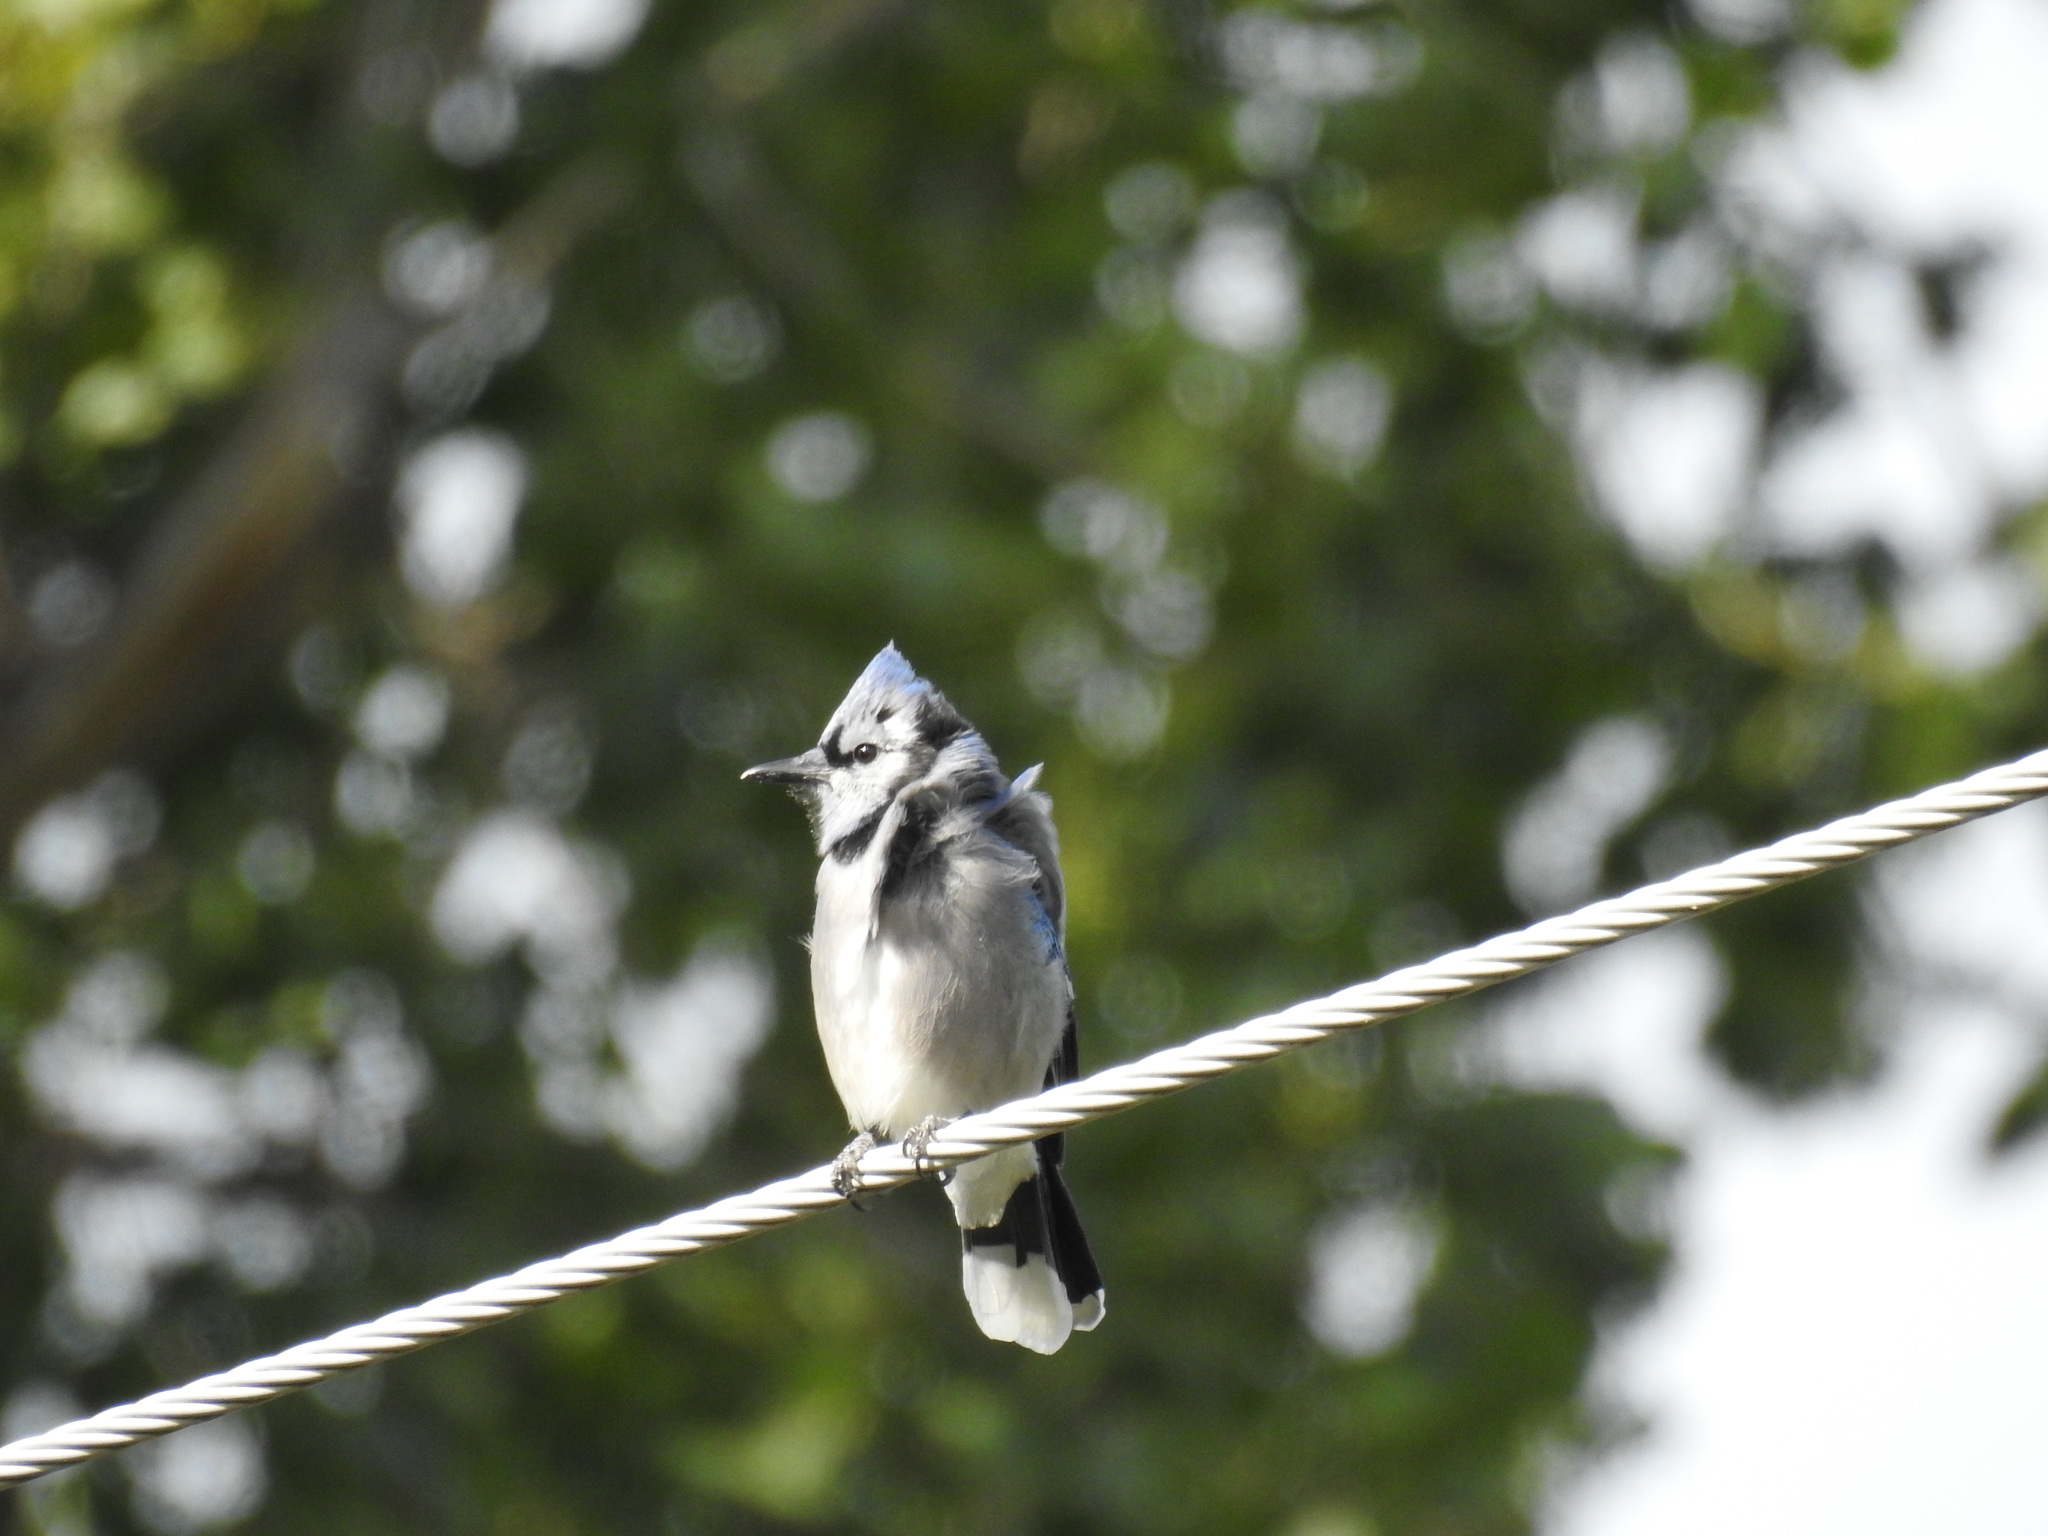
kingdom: Animalia
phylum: Chordata
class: Aves
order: Passeriformes
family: Corvidae
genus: Cyanocitta
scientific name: Cyanocitta cristata
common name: Blue jay
